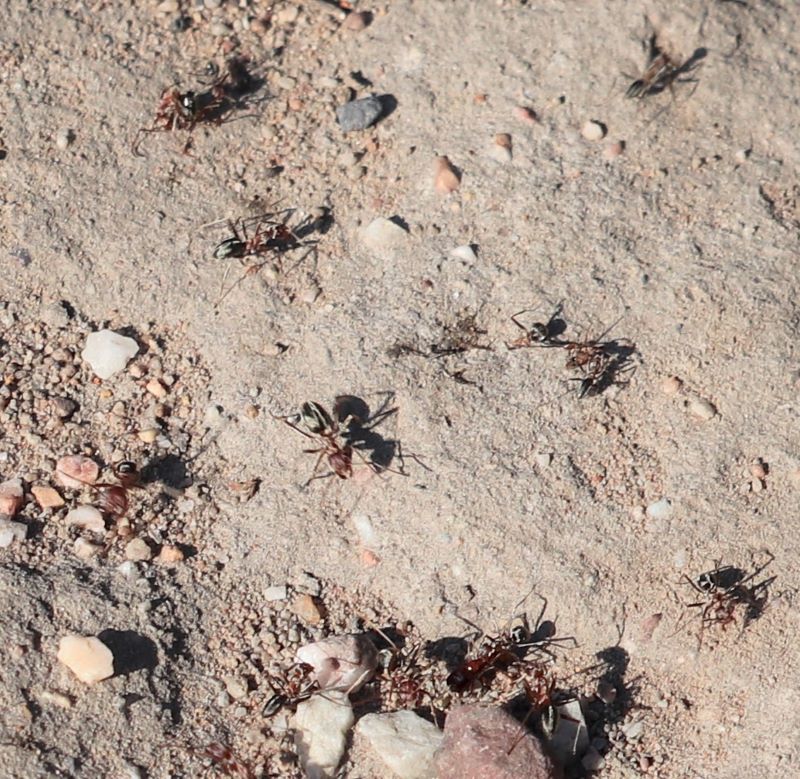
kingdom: Animalia
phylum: Arthropoda
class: Insecta
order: Hymenoptera
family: Formicidae
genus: Anoplolepis
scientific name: Anoplolepis custodiens
